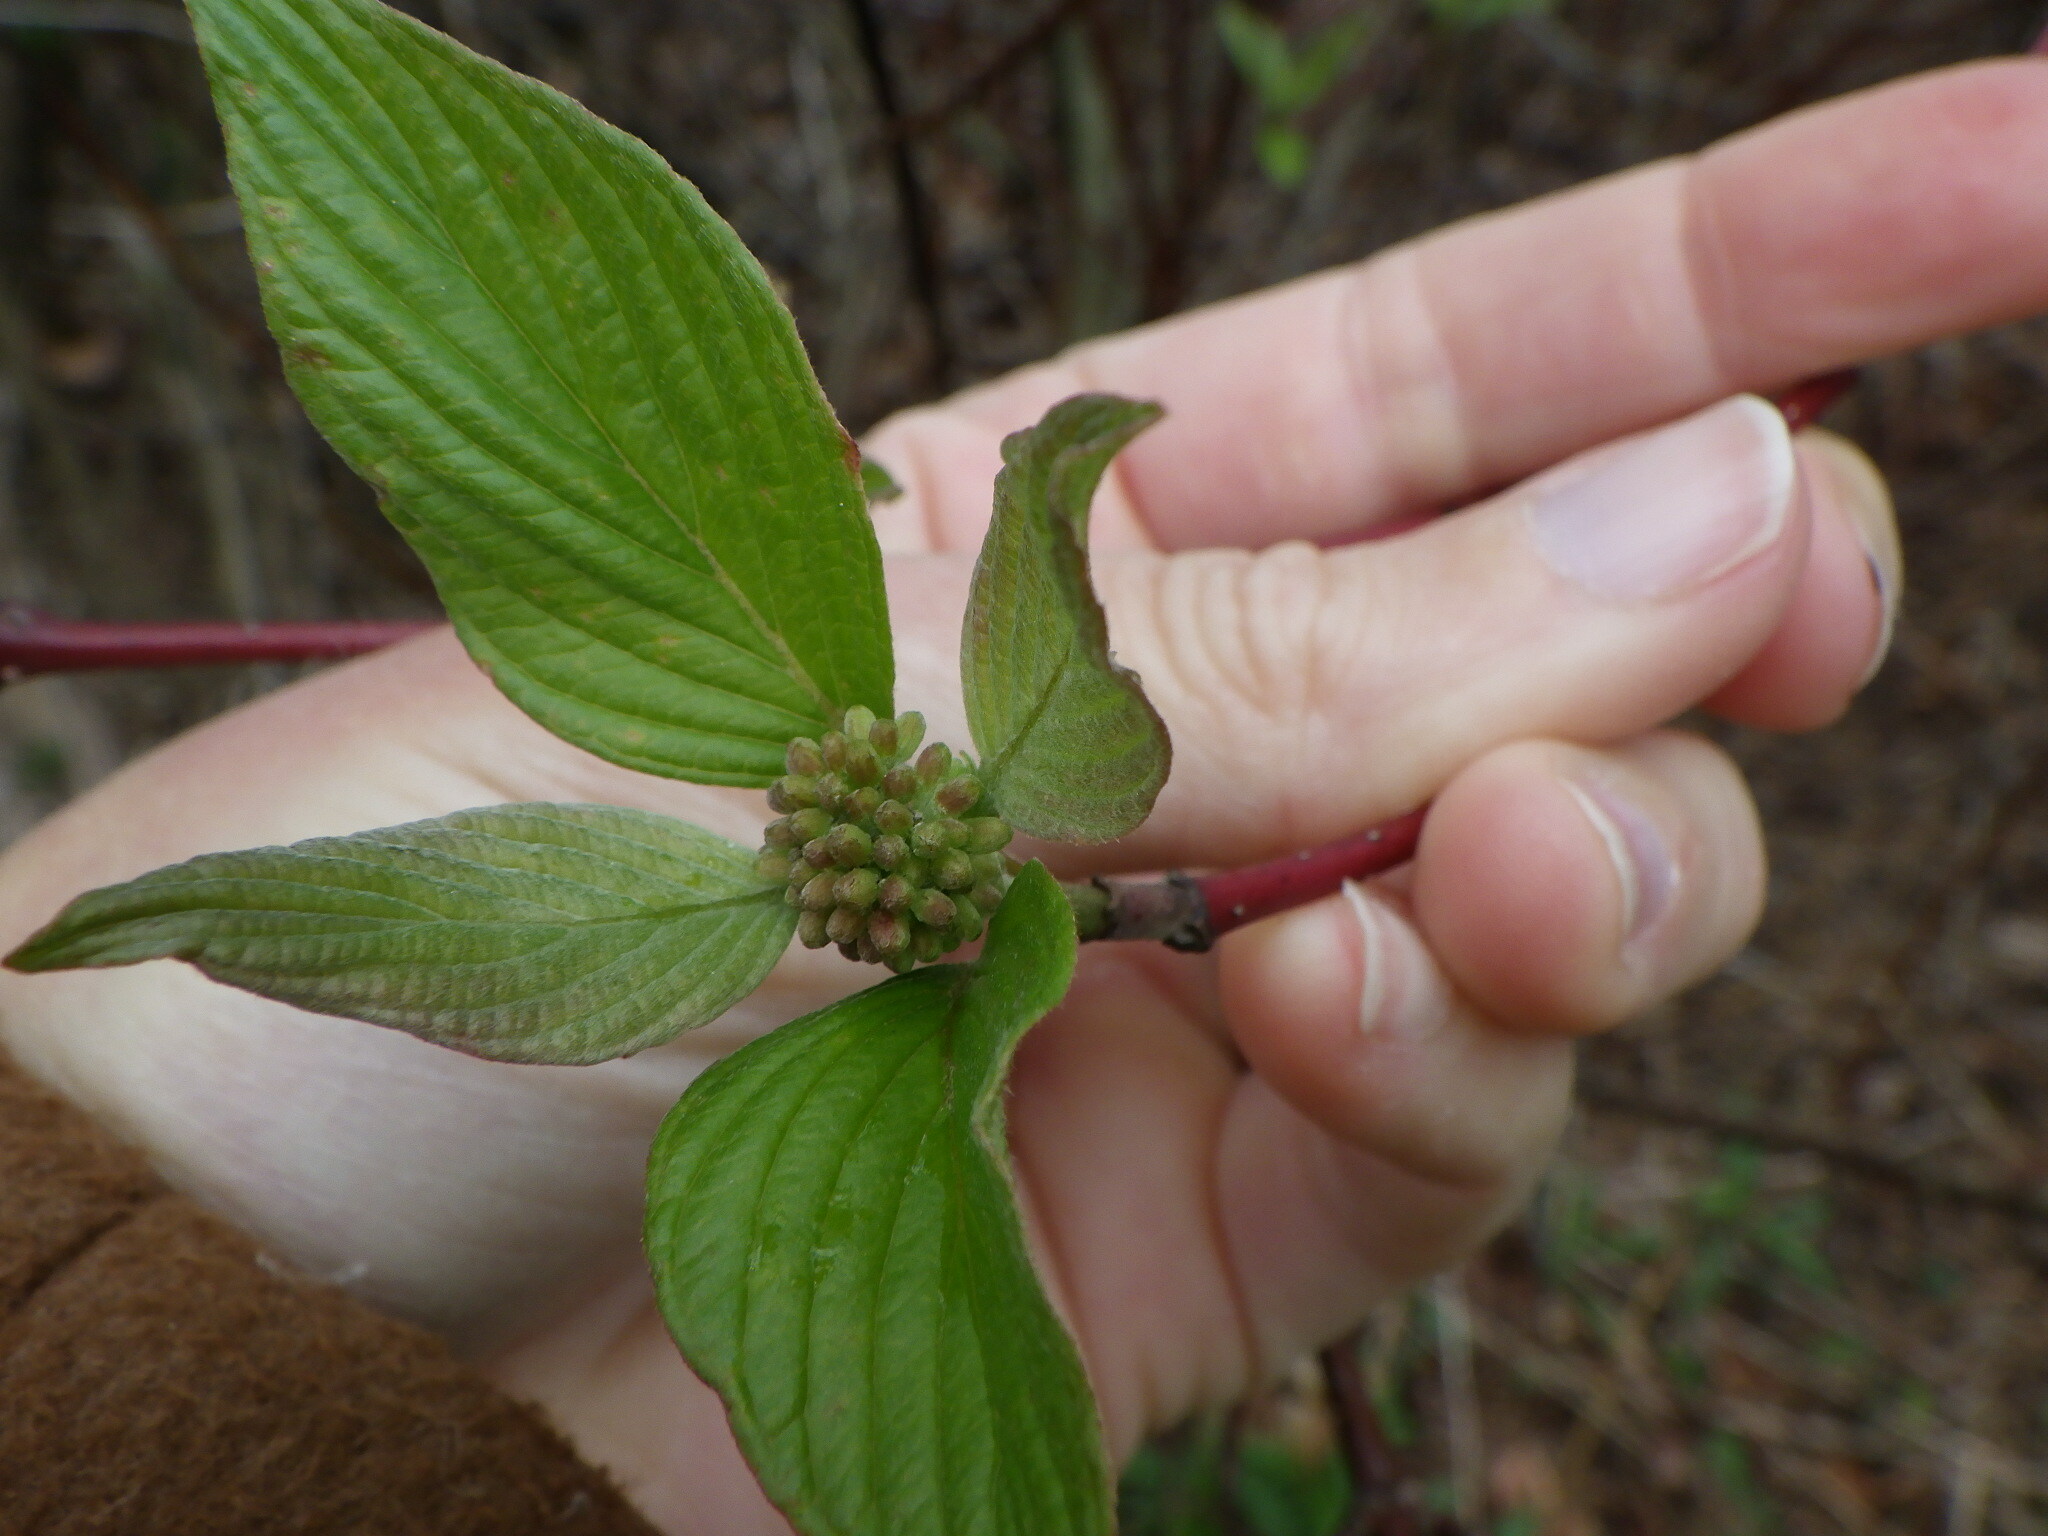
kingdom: Plantae
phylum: Tracheophyta
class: Magnoliopsida
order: Cornales
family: Cornaceae
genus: Cornus
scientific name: Cornus sericea
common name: Red-osier dogwood
